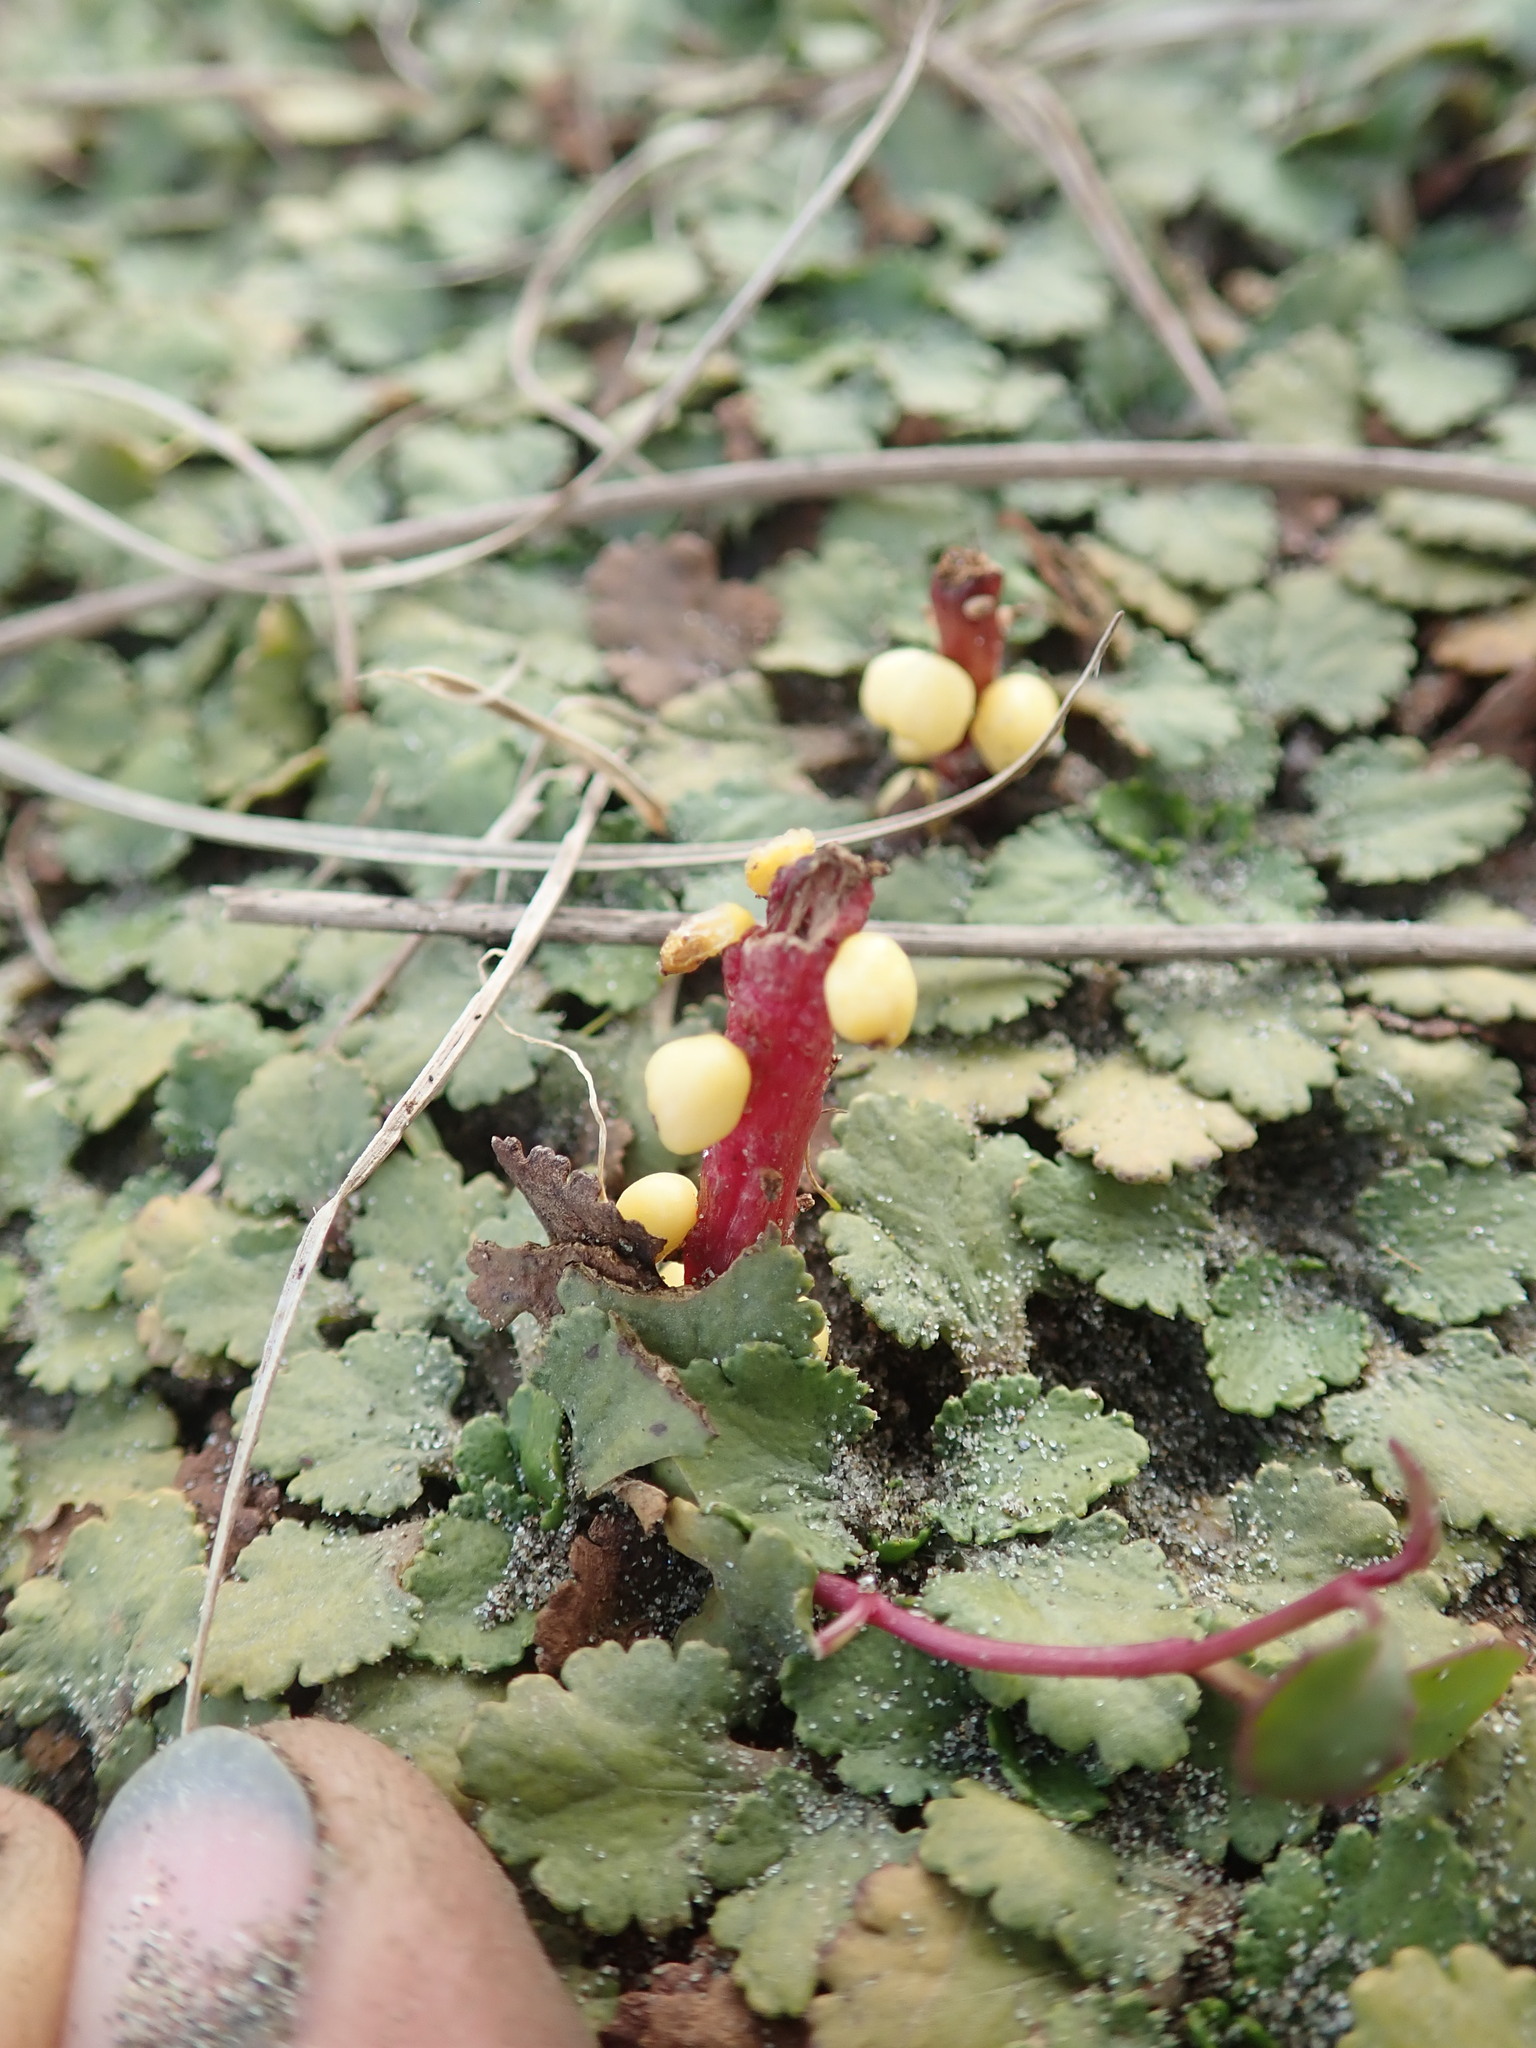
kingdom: Plantae
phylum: Tracheophyta
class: Magnoliopsida
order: Gunnerales
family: Gunneraceae
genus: Gunnera
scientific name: Gunnera dentata
